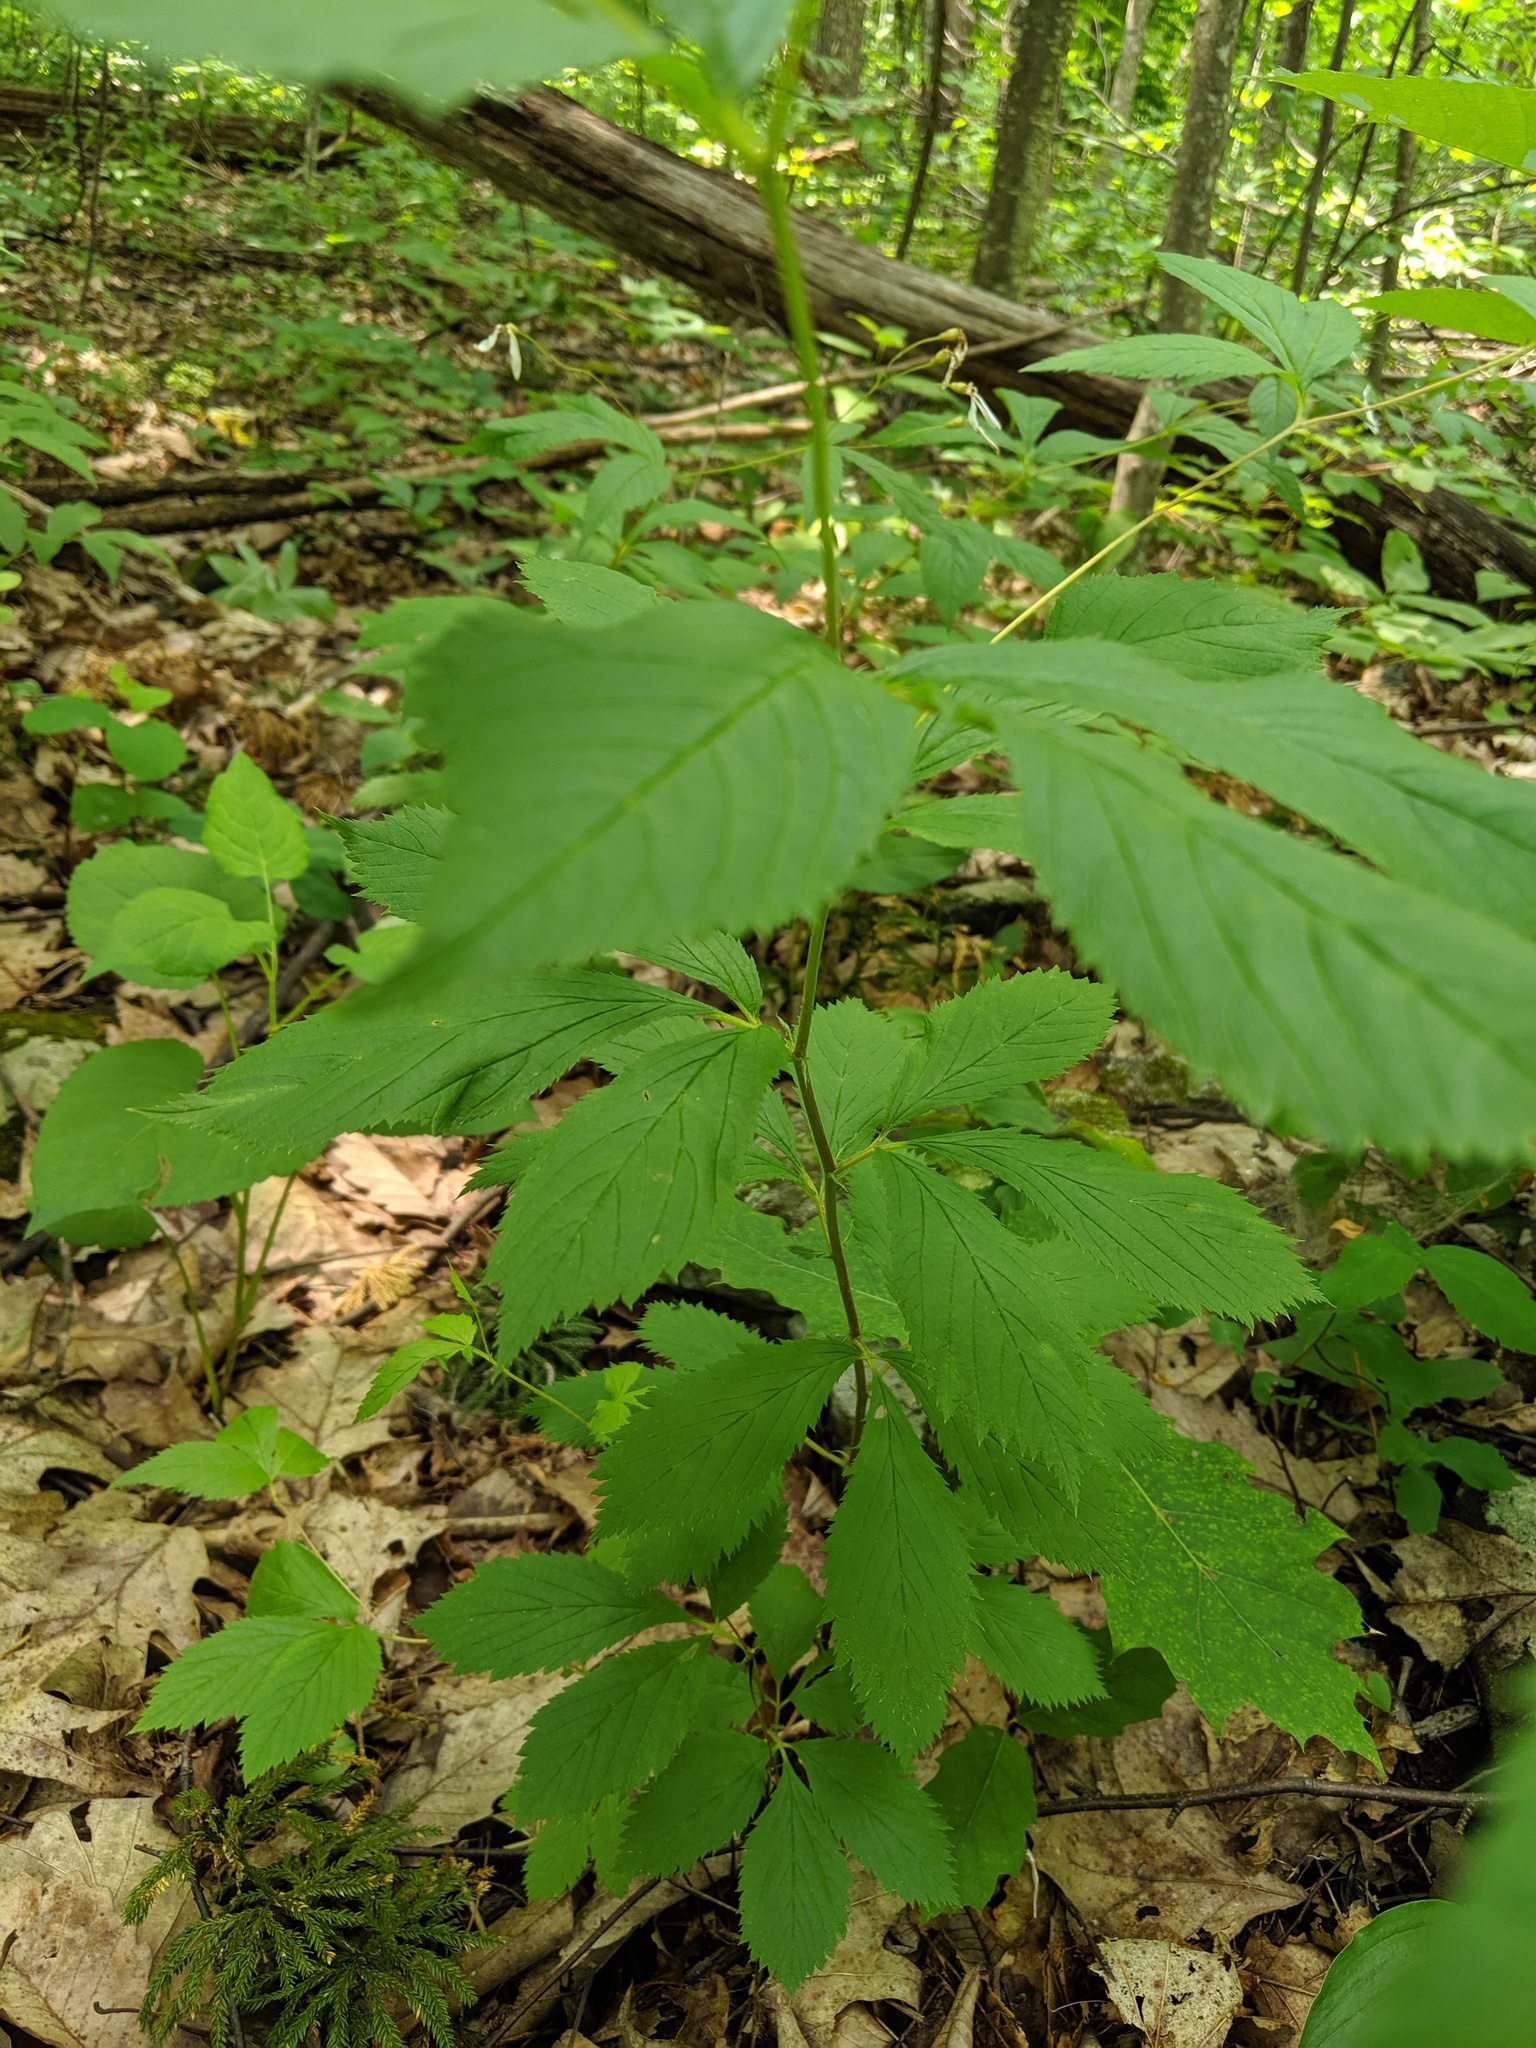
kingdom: Plantae
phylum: Tracheophyta
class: Magnoliopsida
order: Rosales
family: Rosaceae
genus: Gillenia
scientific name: Gillenia trifoliata
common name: Bowman's-root
